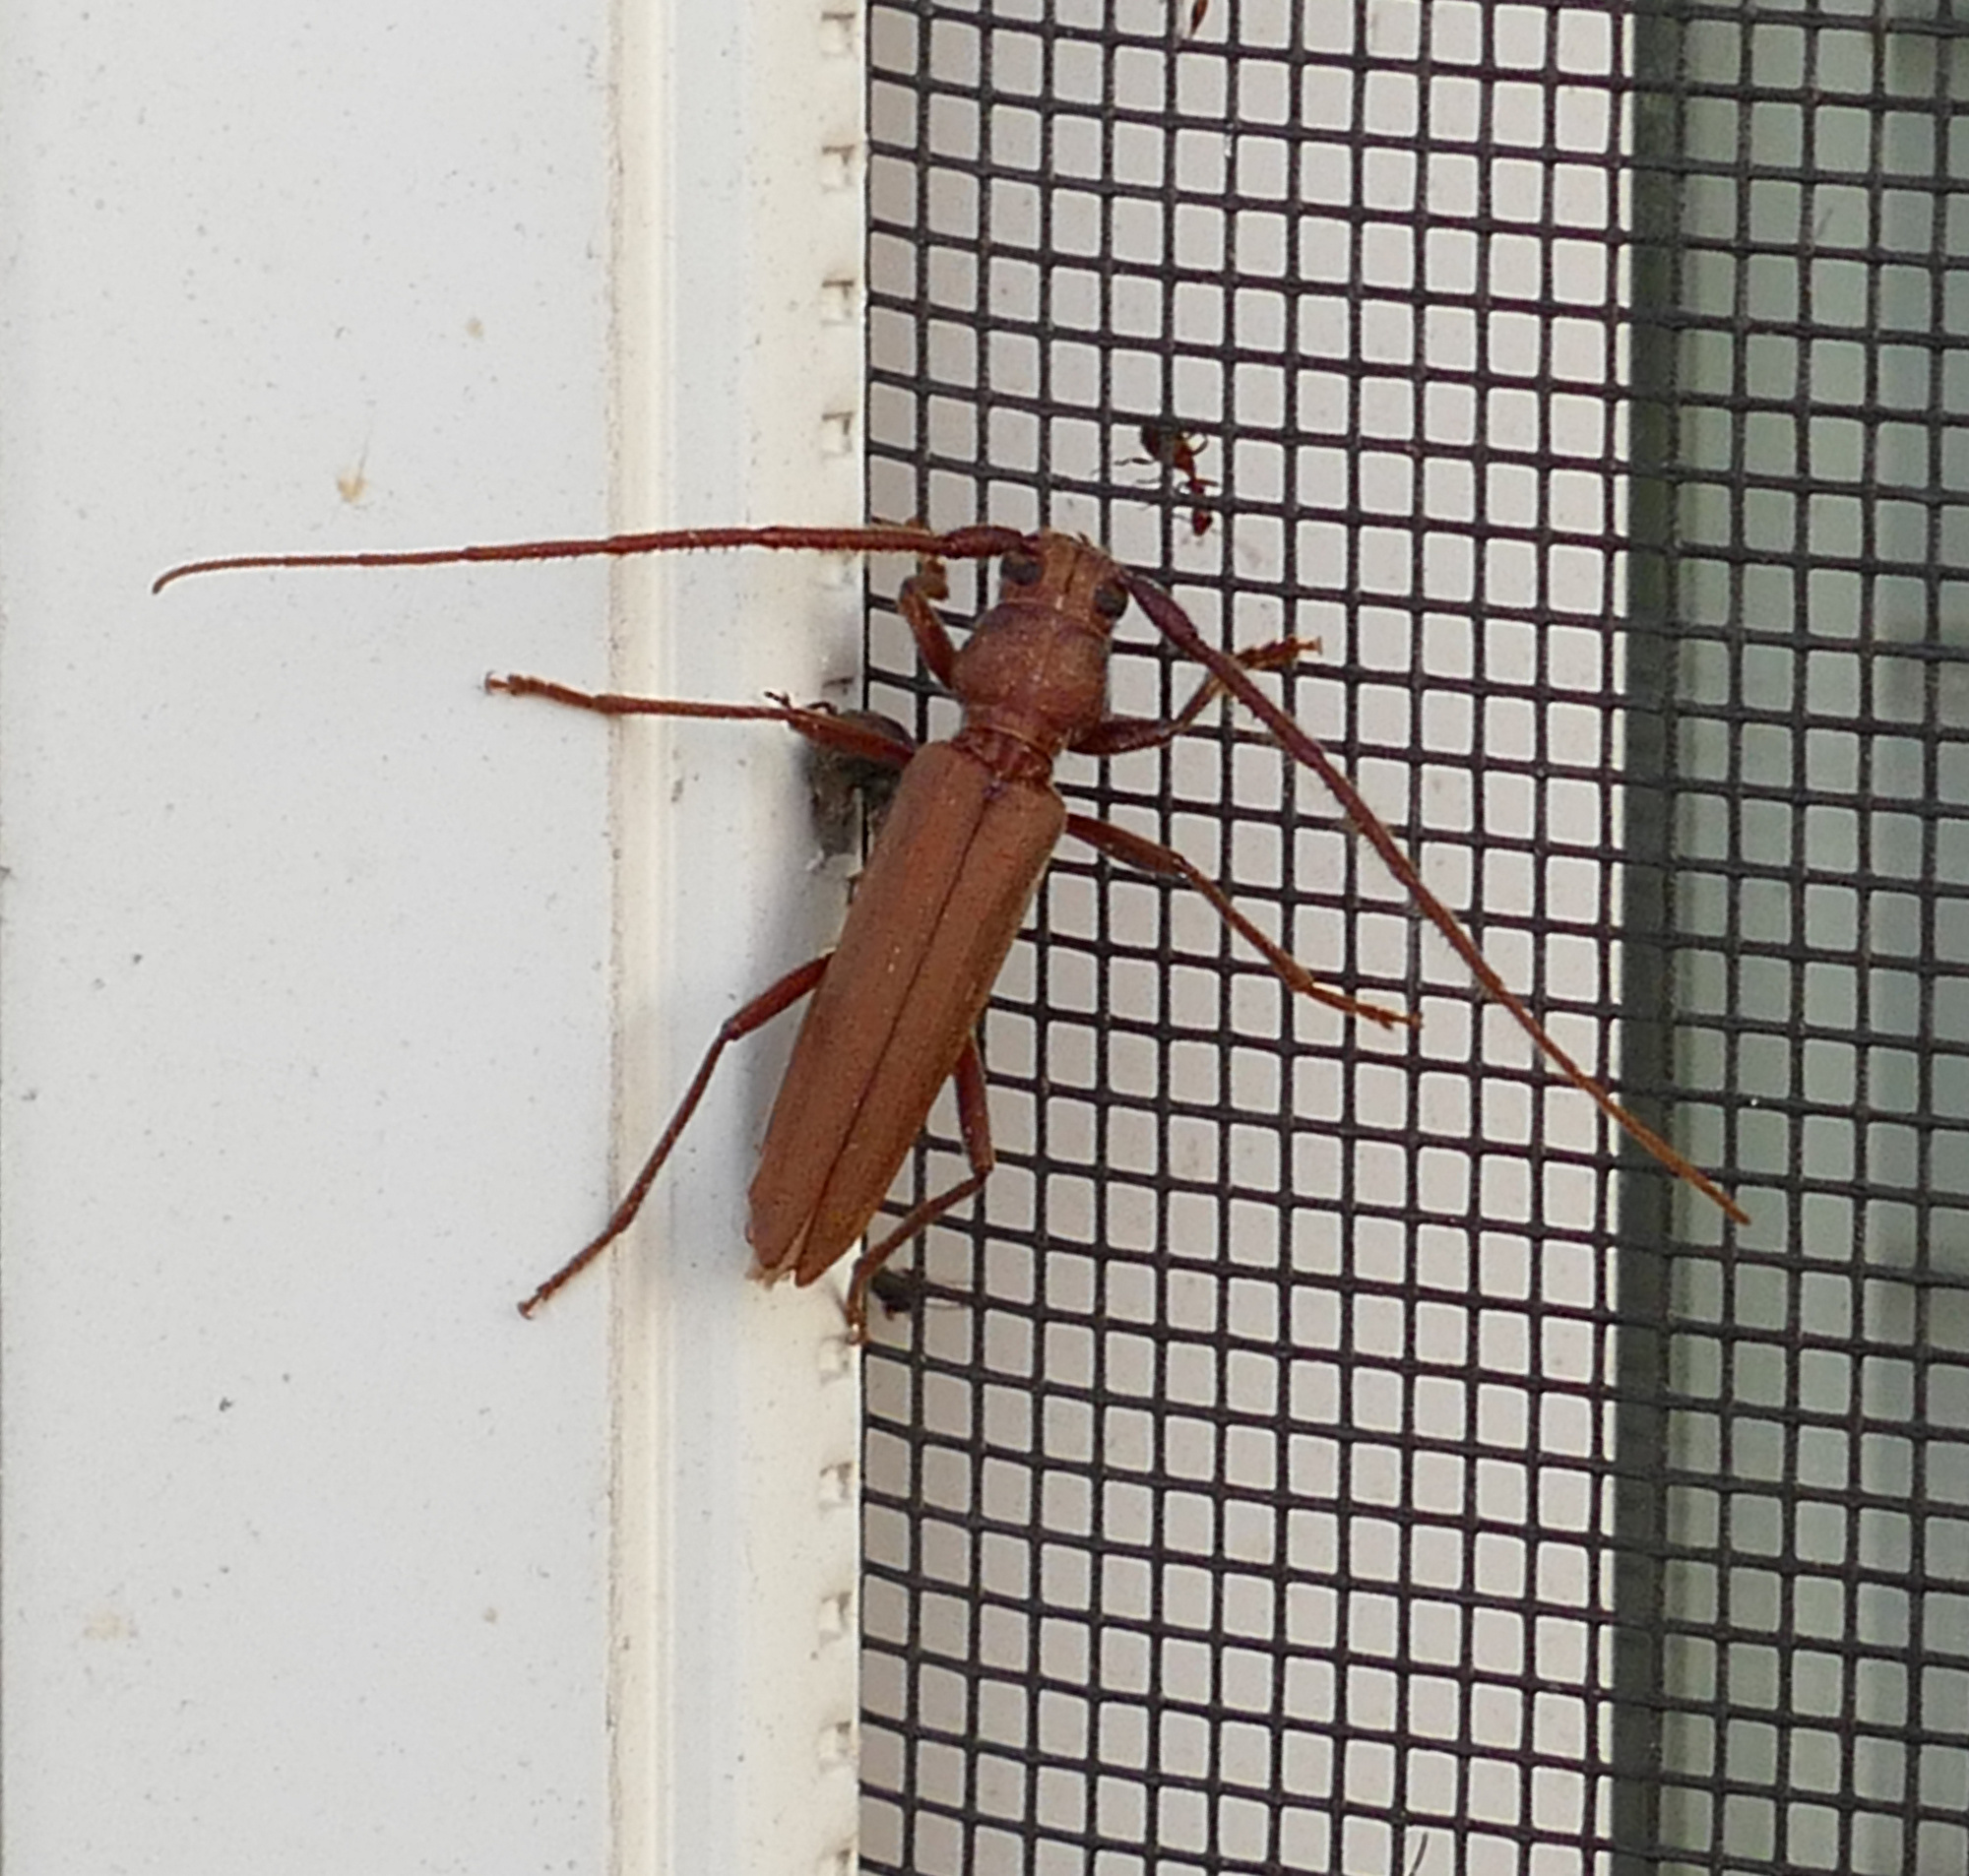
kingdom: Animalia
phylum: Arthropoda
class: Insecta
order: Coleoptera
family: Cerambycidae
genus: Oeme
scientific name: Oeme rigida
